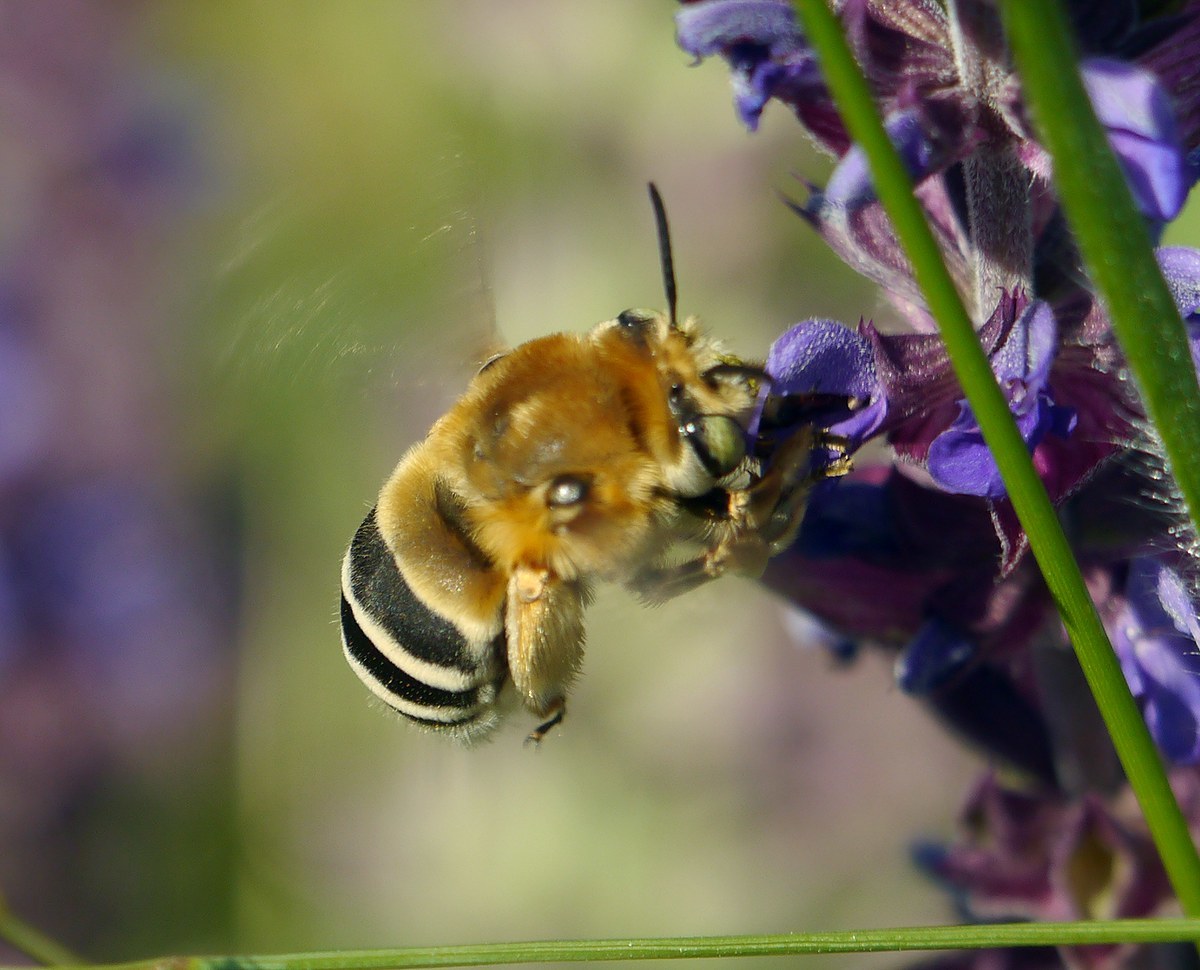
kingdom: Animalia
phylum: Arthropoda
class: Insecta
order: Hymenoptera
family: Apidae
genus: Habropoda
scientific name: Habropoda zonatula
